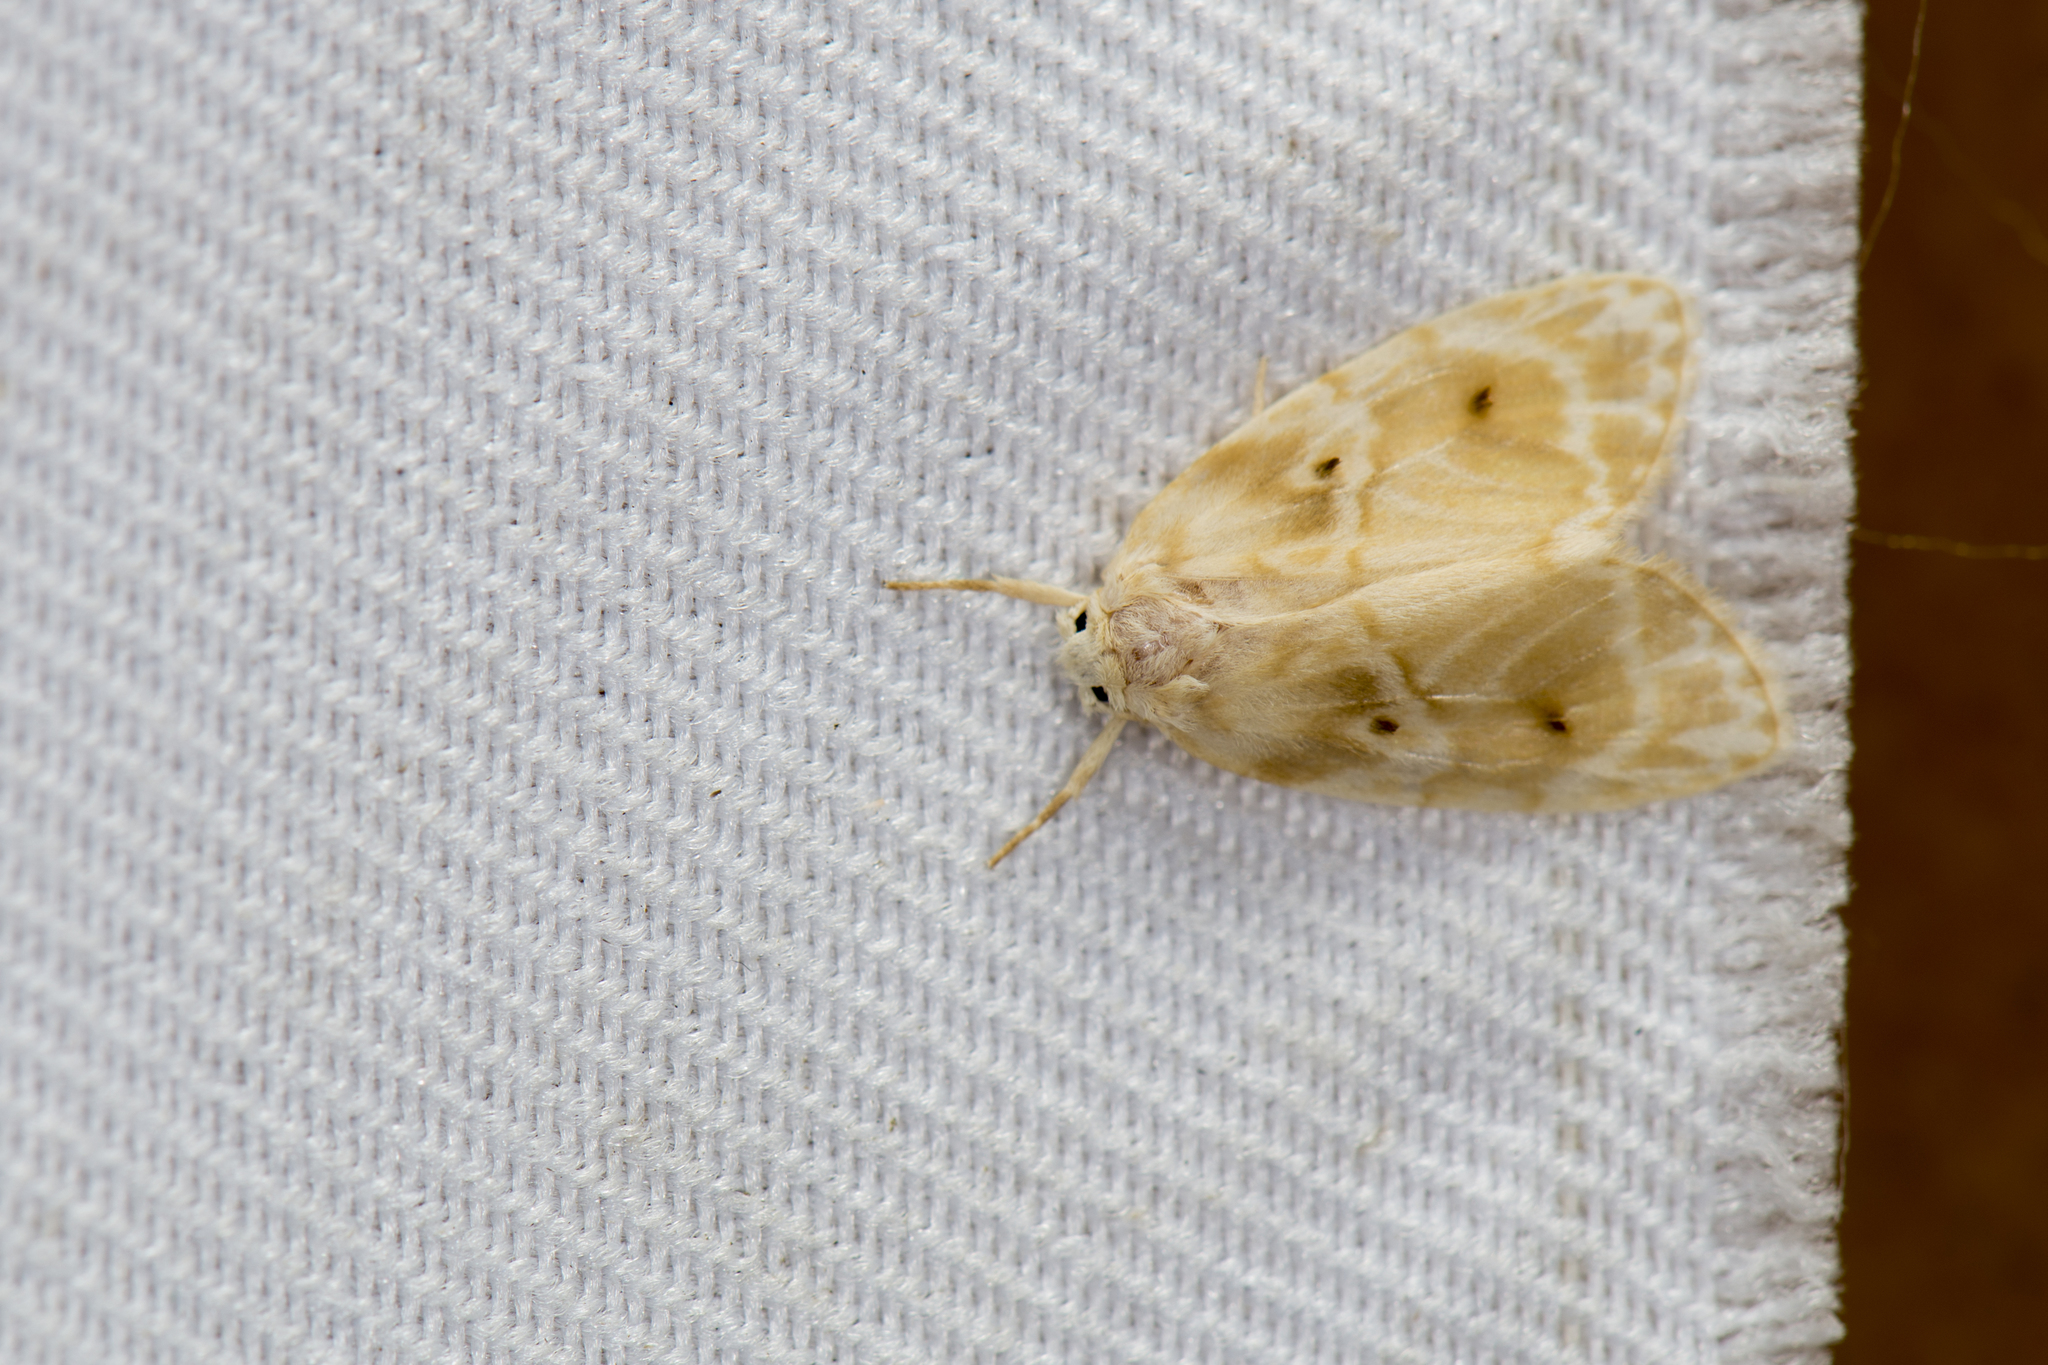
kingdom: Animalia
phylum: Arthropoda
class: Insecta
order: Lepidoptera
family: Erebidae
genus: Schistophleps
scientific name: Schistophleps bipuncta
